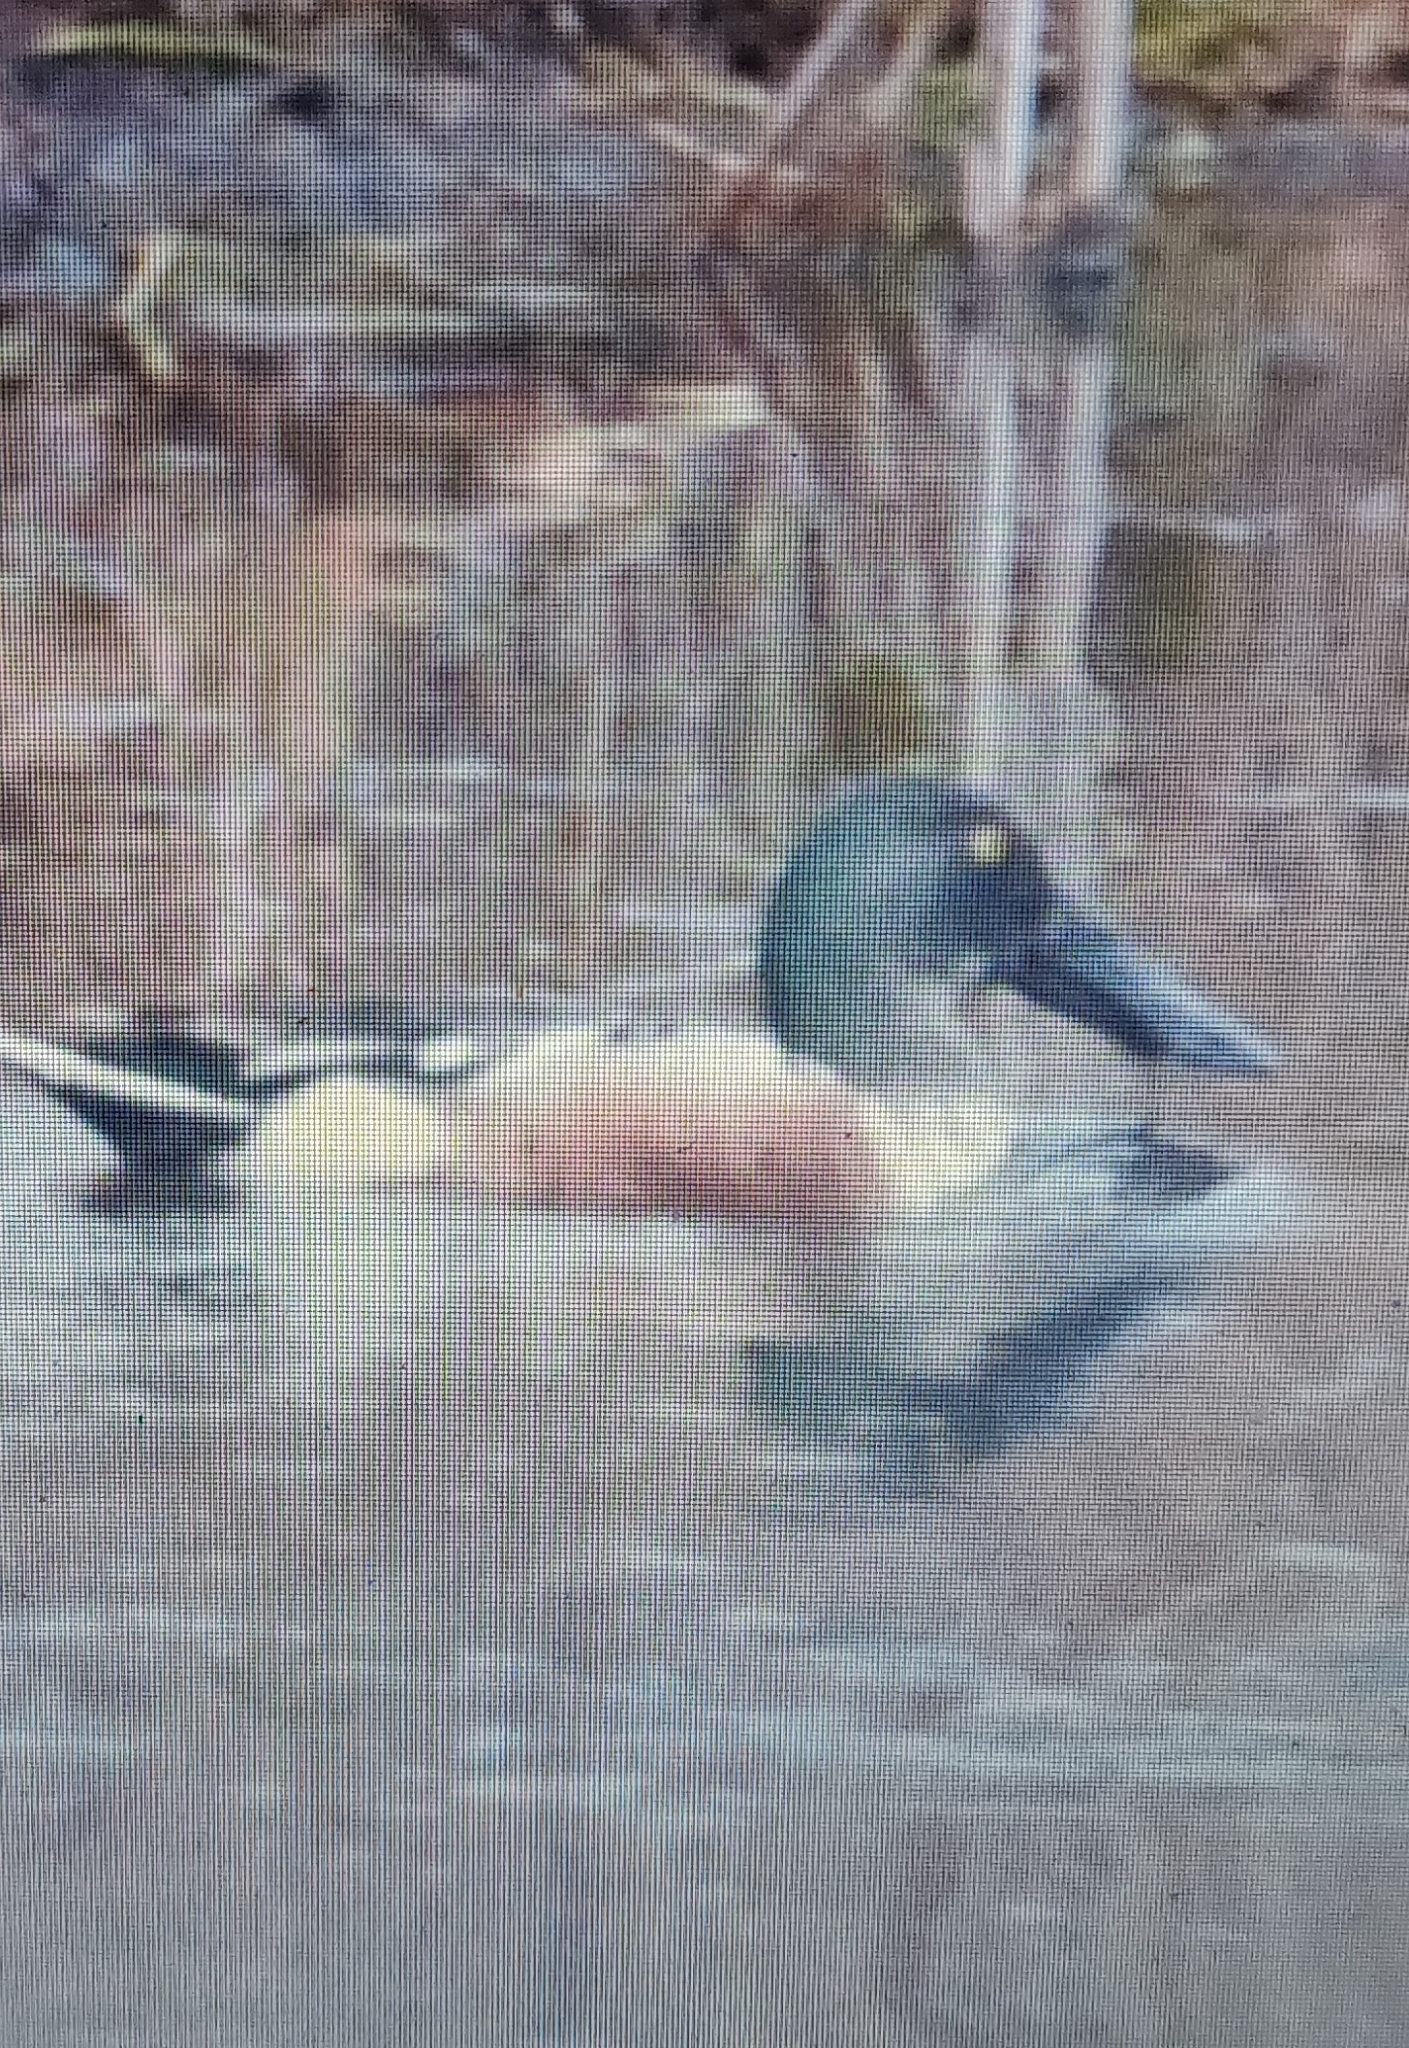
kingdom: Animalia
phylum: Chordata
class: Aves
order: Anseriformes
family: Anatidae
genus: Spatula
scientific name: Spatula clypeata
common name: Northern shoveler
